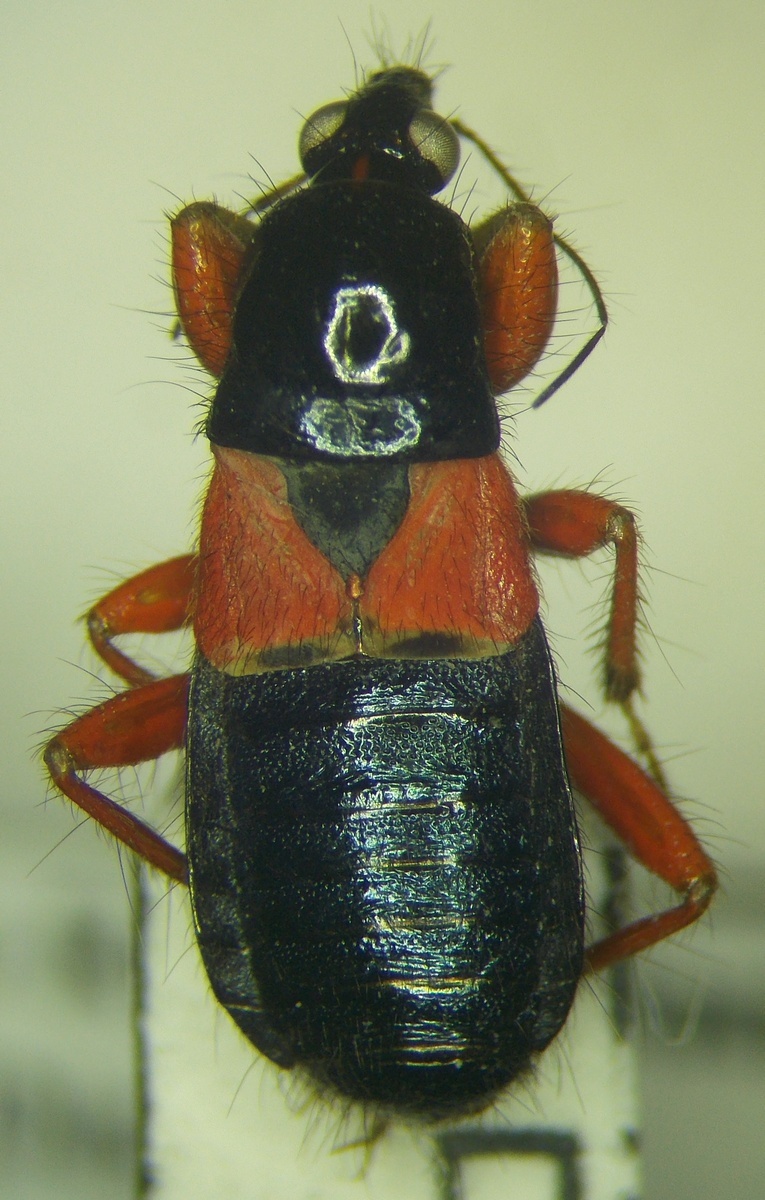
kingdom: Animalia
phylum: Arthropoda
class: Insecta
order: Hemiptera
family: Nabidae
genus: Prostemma
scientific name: Prostemma guttula
